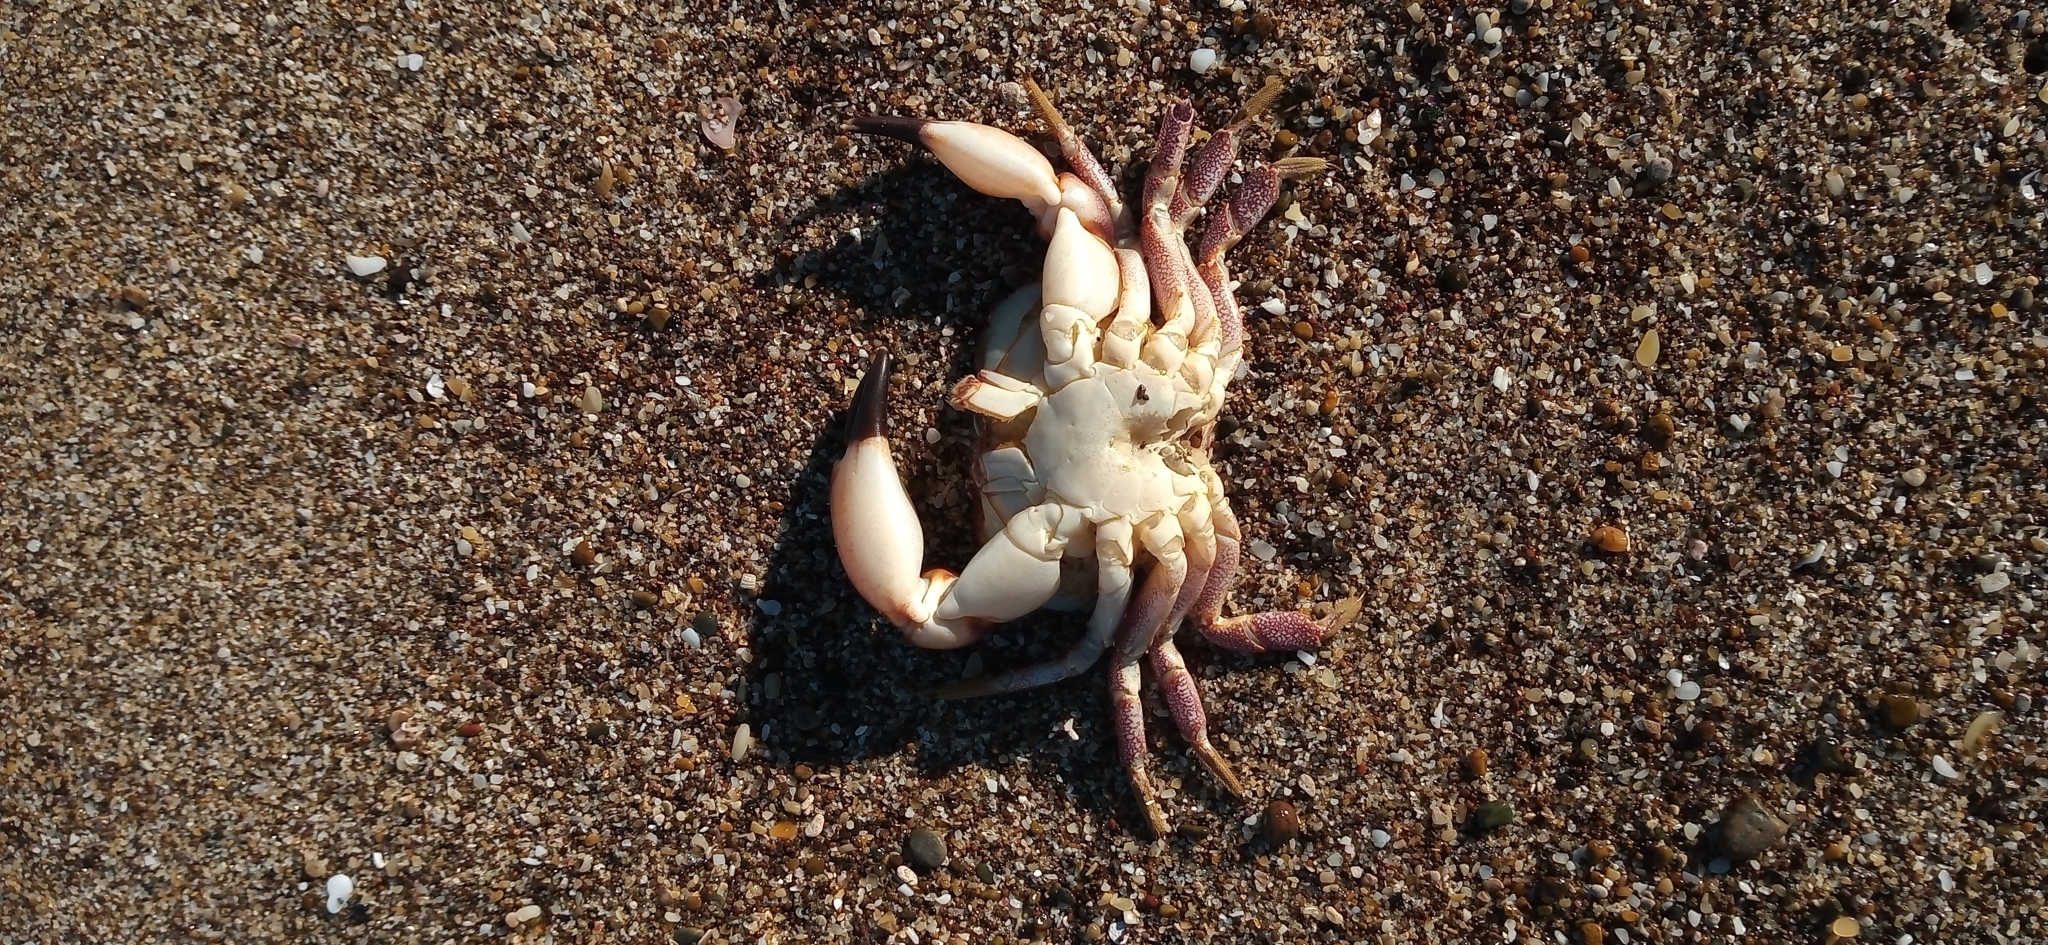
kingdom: Animalia
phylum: Arthropoda
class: Malacostraca
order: Decapoda
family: Platyxanthidae
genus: Danielethus
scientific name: Danielethus crenulatus
